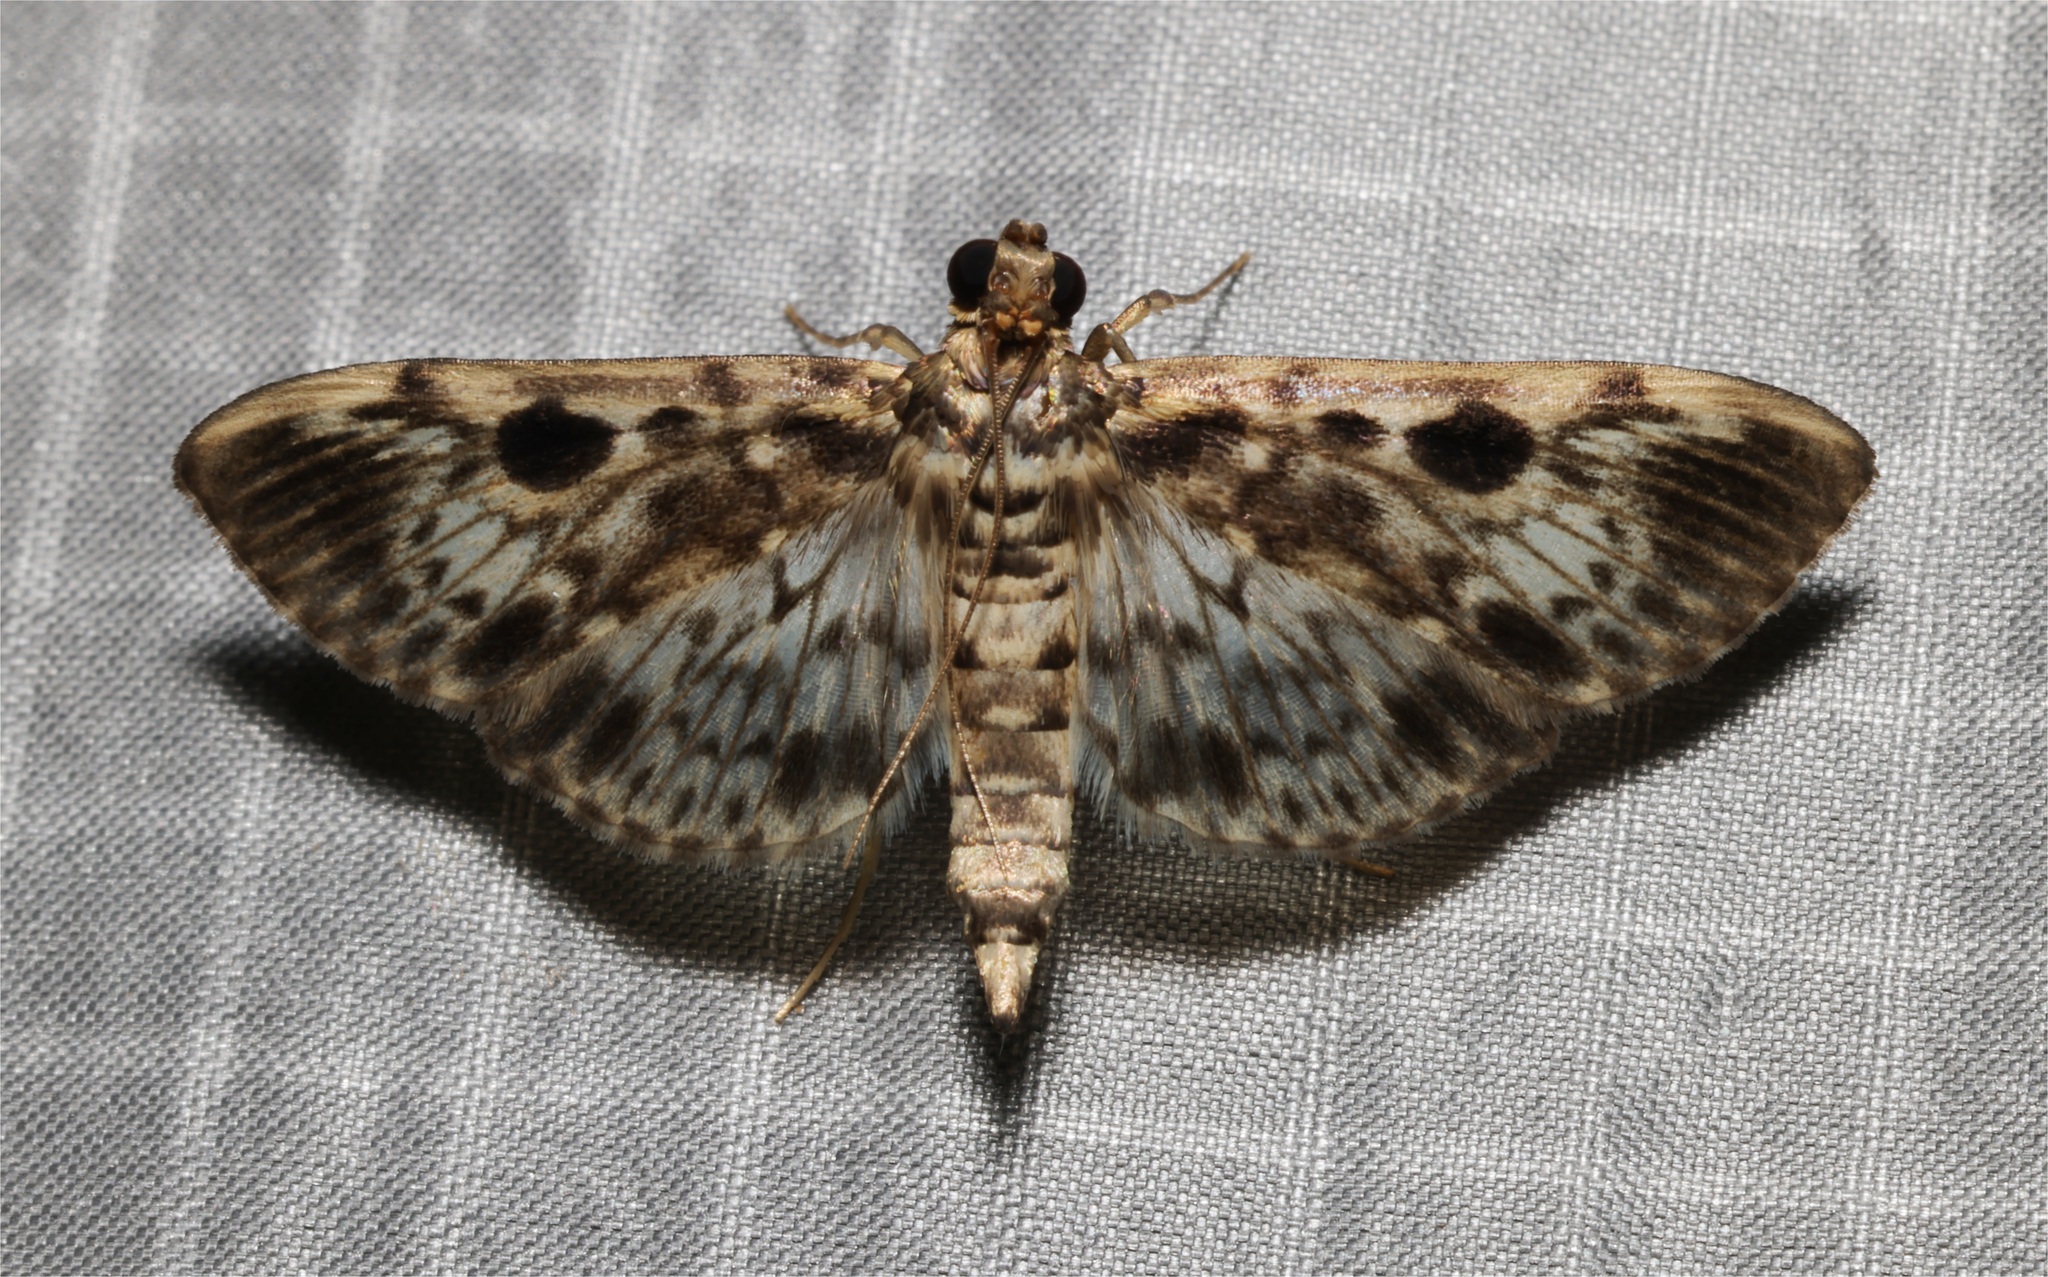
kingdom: Animalia
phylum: Arthropoda
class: Insecta
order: Lepidoptera
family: Crambidae
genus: Rhimphaliodes
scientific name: Rhimphaliodes macrostigma
